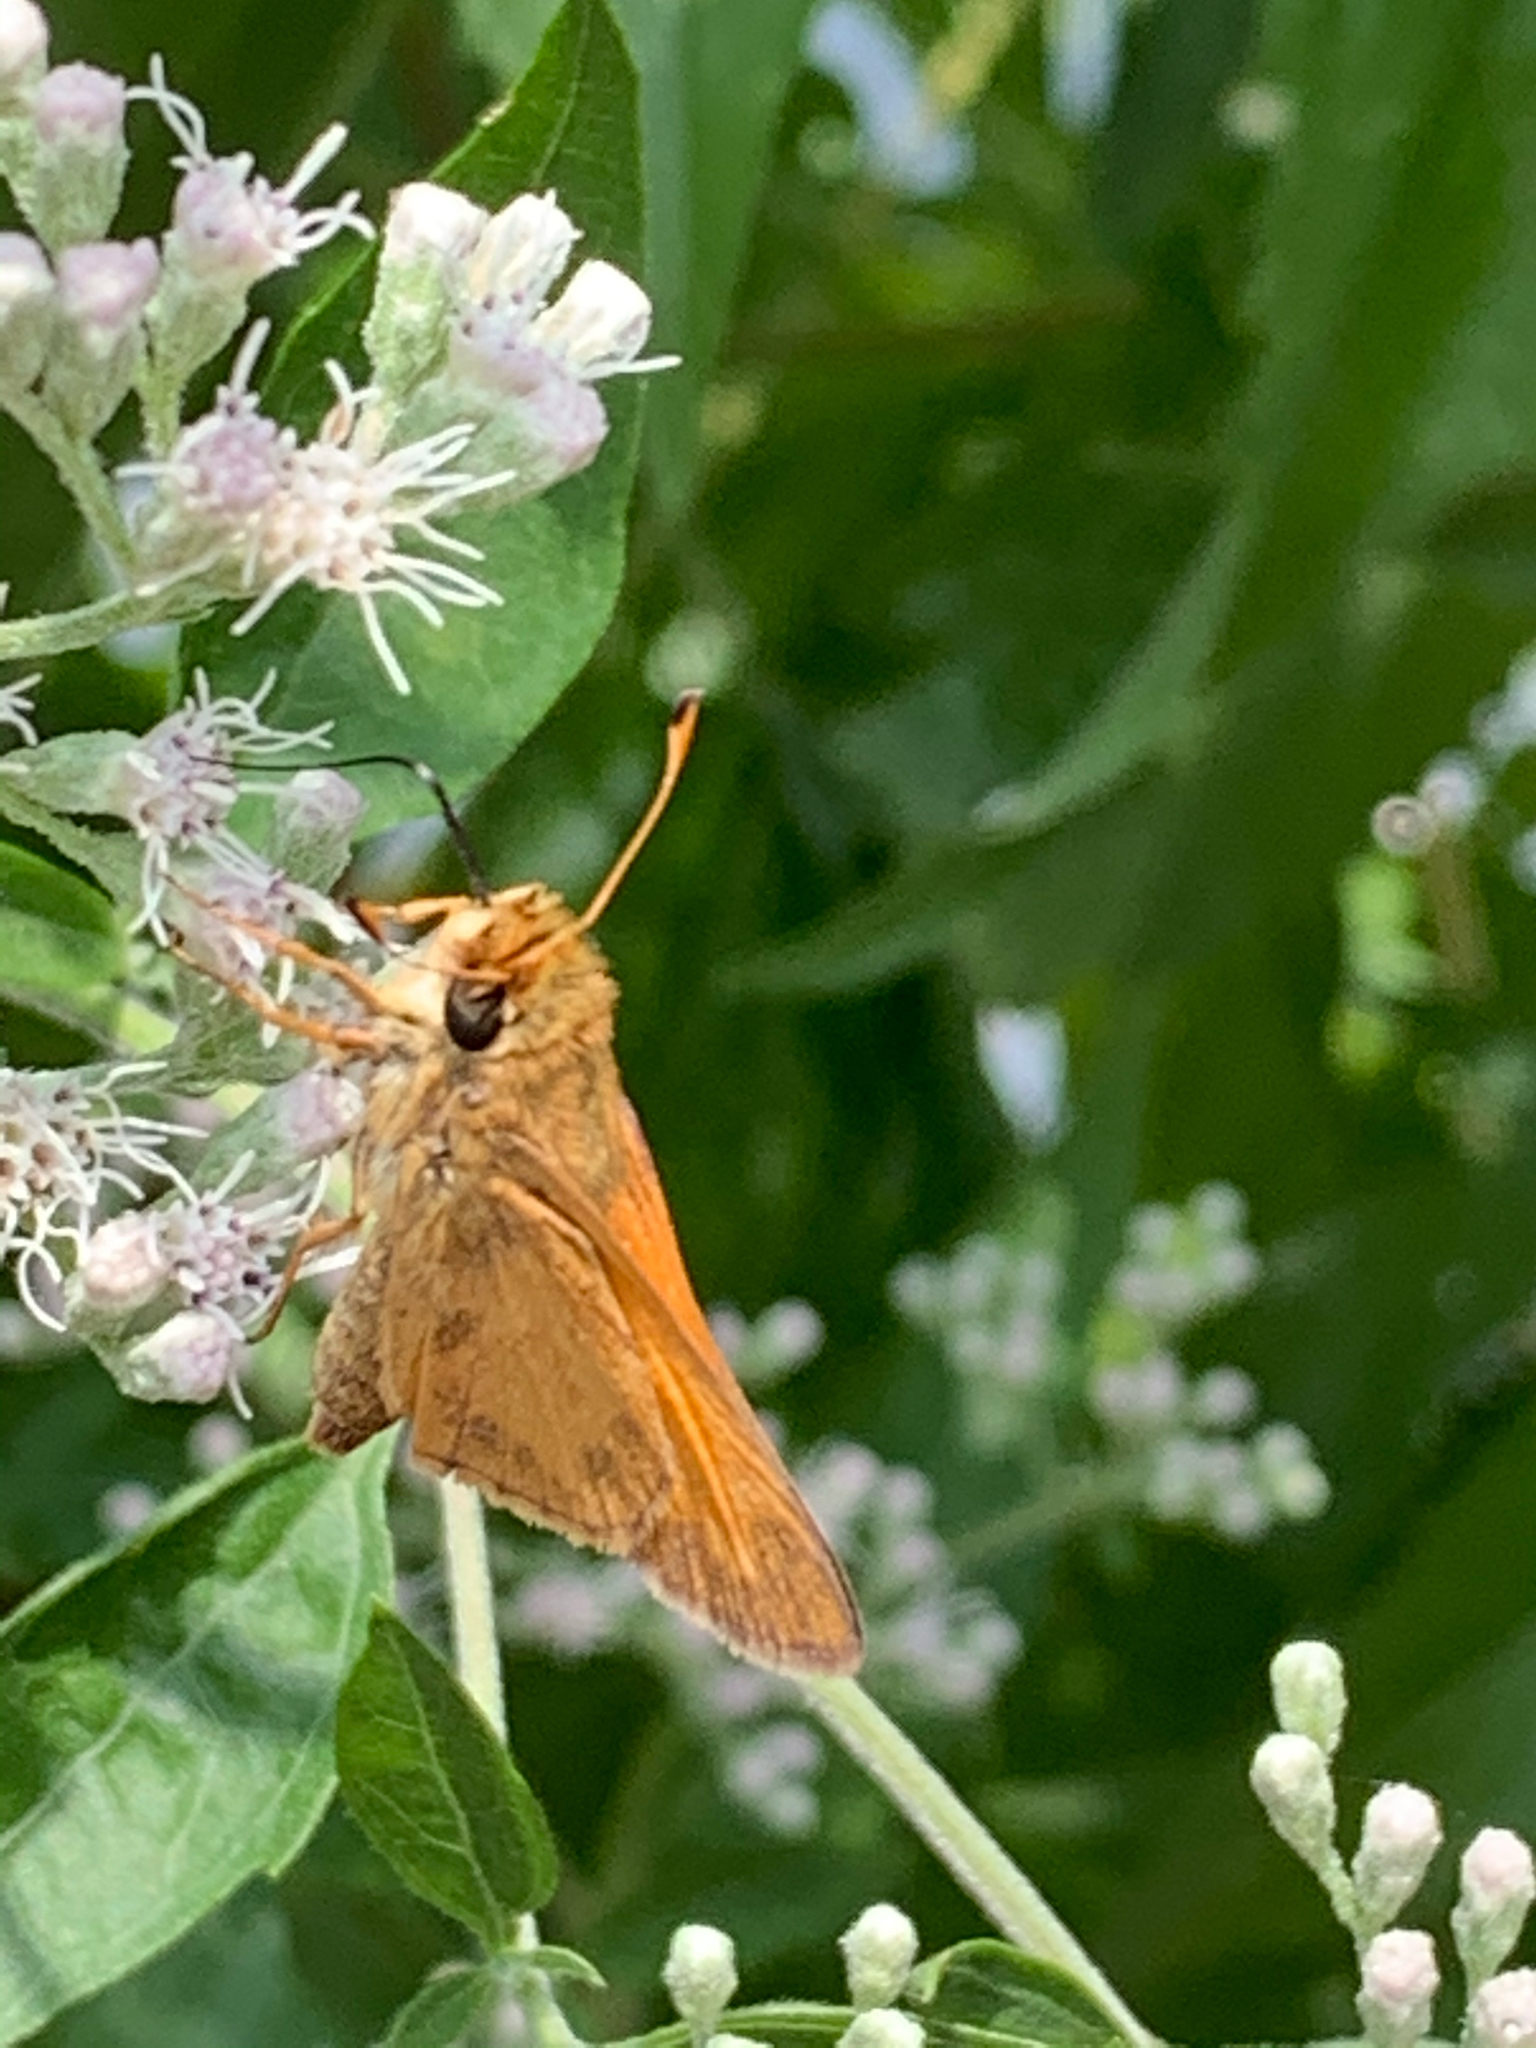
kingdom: Animalia
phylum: Arthropoda
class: Insecta
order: Lepidoptera
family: Hesperiidae
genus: Atalopedes
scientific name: Atalopedes
